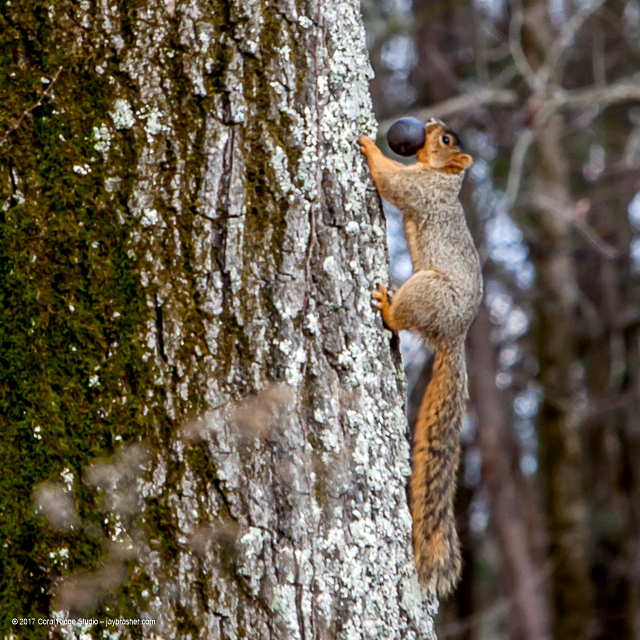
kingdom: Animalia
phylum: Chordata
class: Mammalia
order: Rodentia
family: Sciuridae
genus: Sciurus
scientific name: Sciurus niger
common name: Fox squirrel
